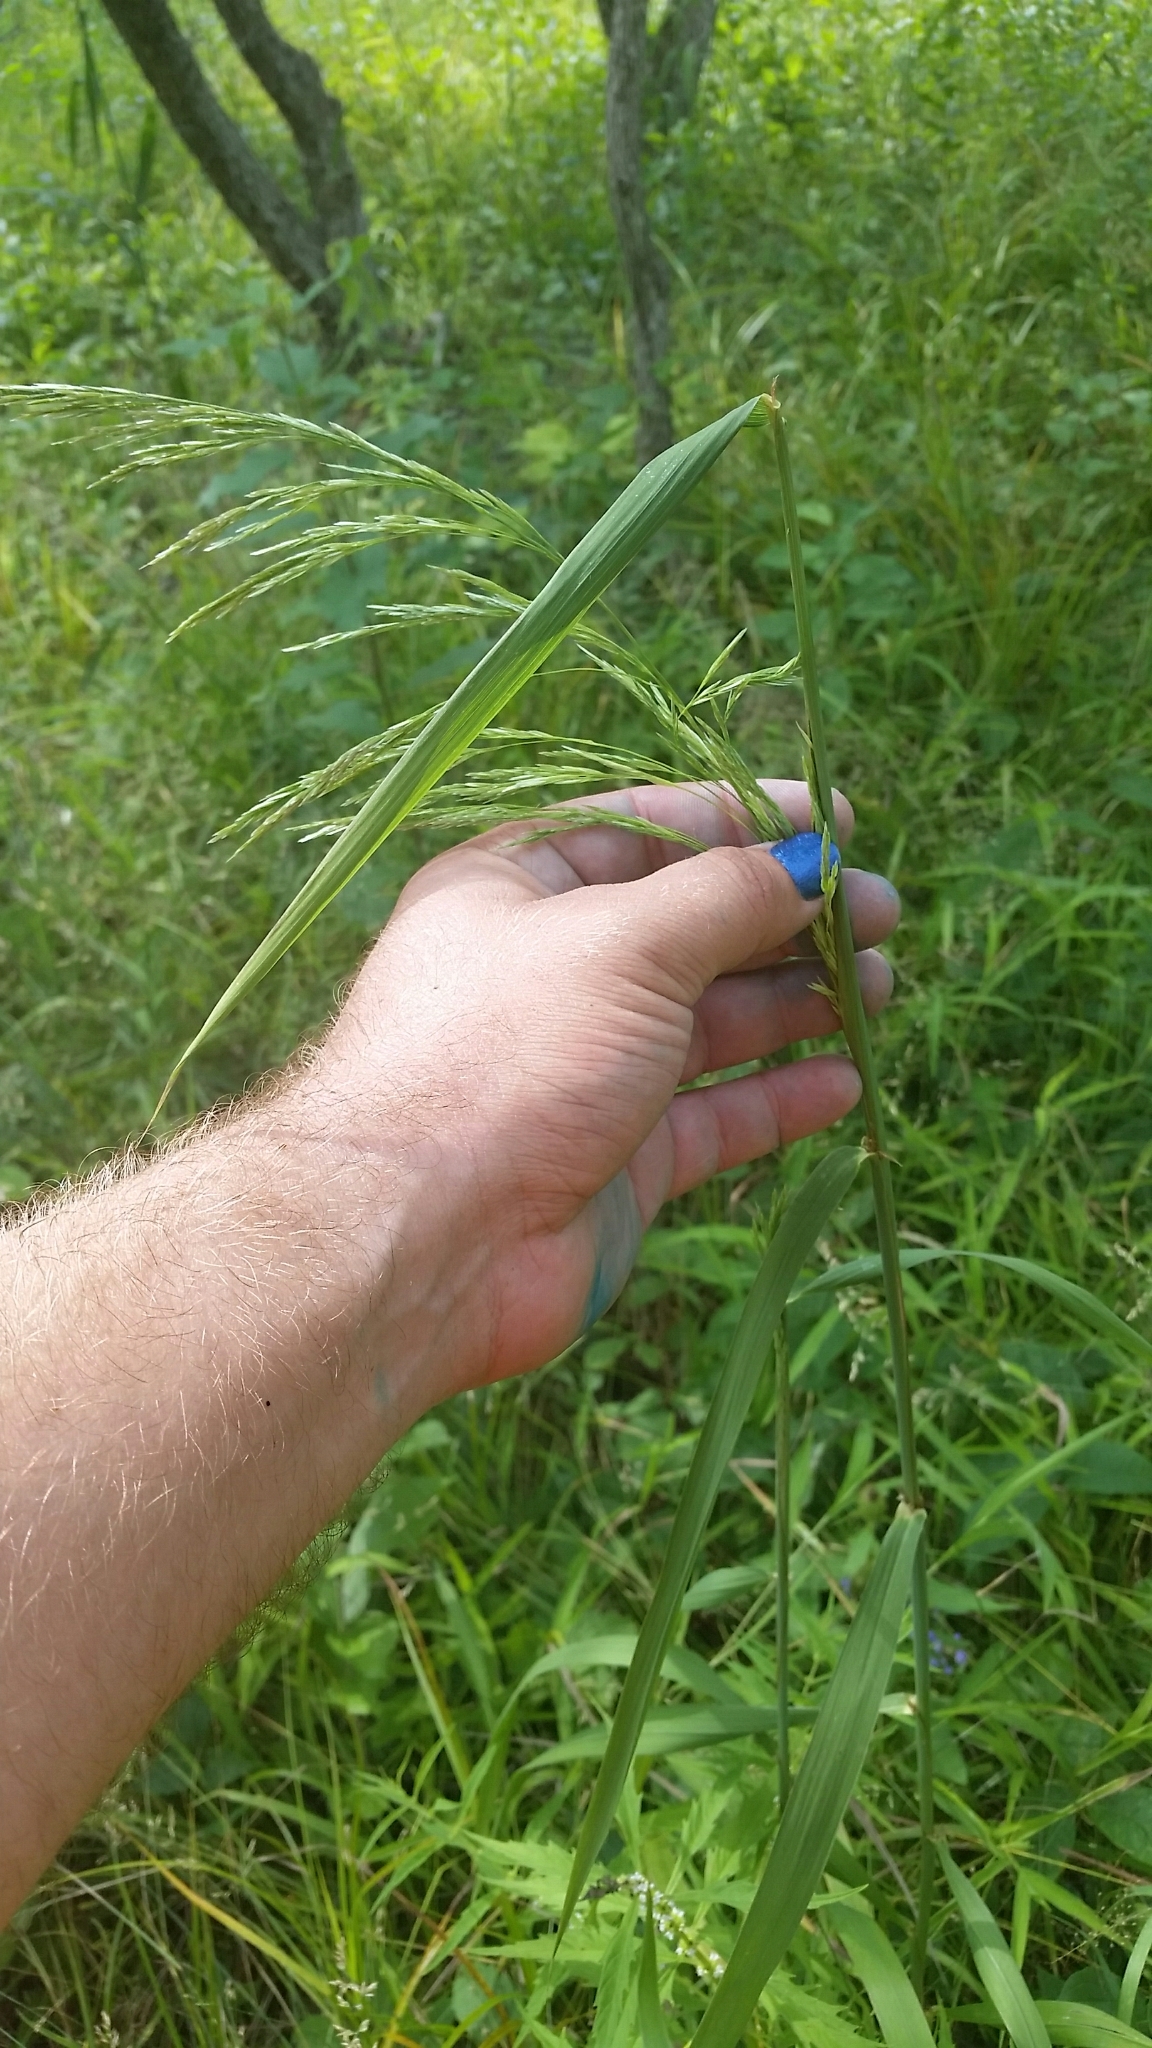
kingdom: Plantae
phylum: Tracheophyta
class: Liliopsida
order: Poales
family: Poaceae
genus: Cinna
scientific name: Cinna arundinacea
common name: Stout woodreed
